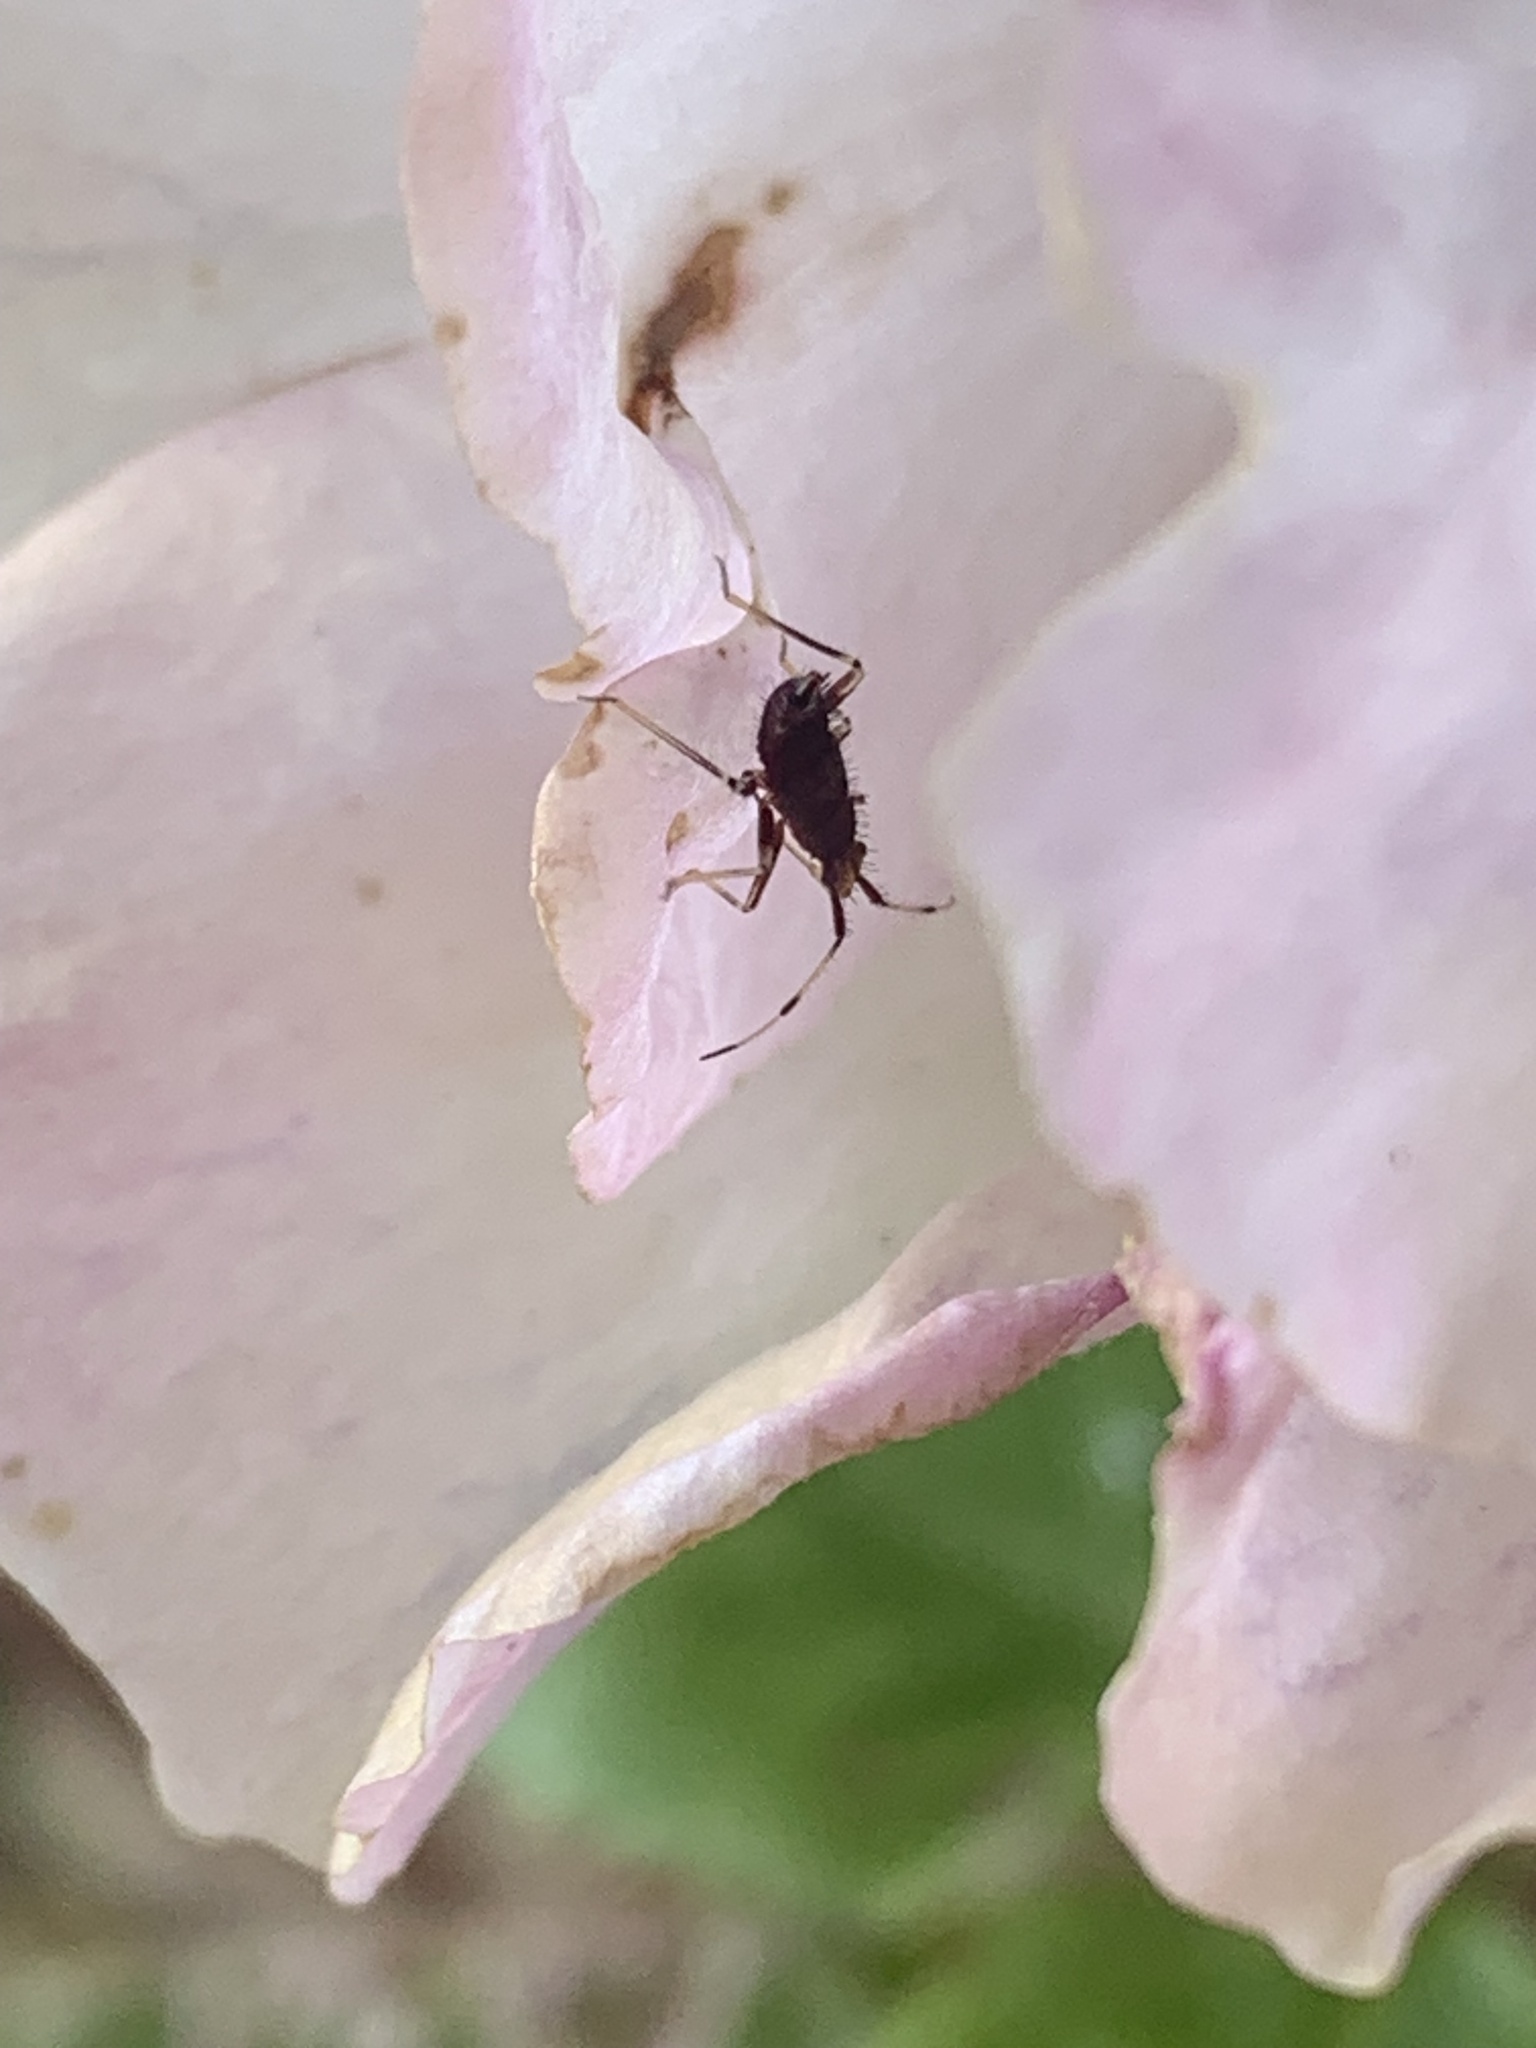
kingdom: Animalia
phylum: Arthropoda
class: Insecta
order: Hemiptera
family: Miridae
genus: Deraeocoris
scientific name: Deraeocoris ruber
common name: Plant bug
